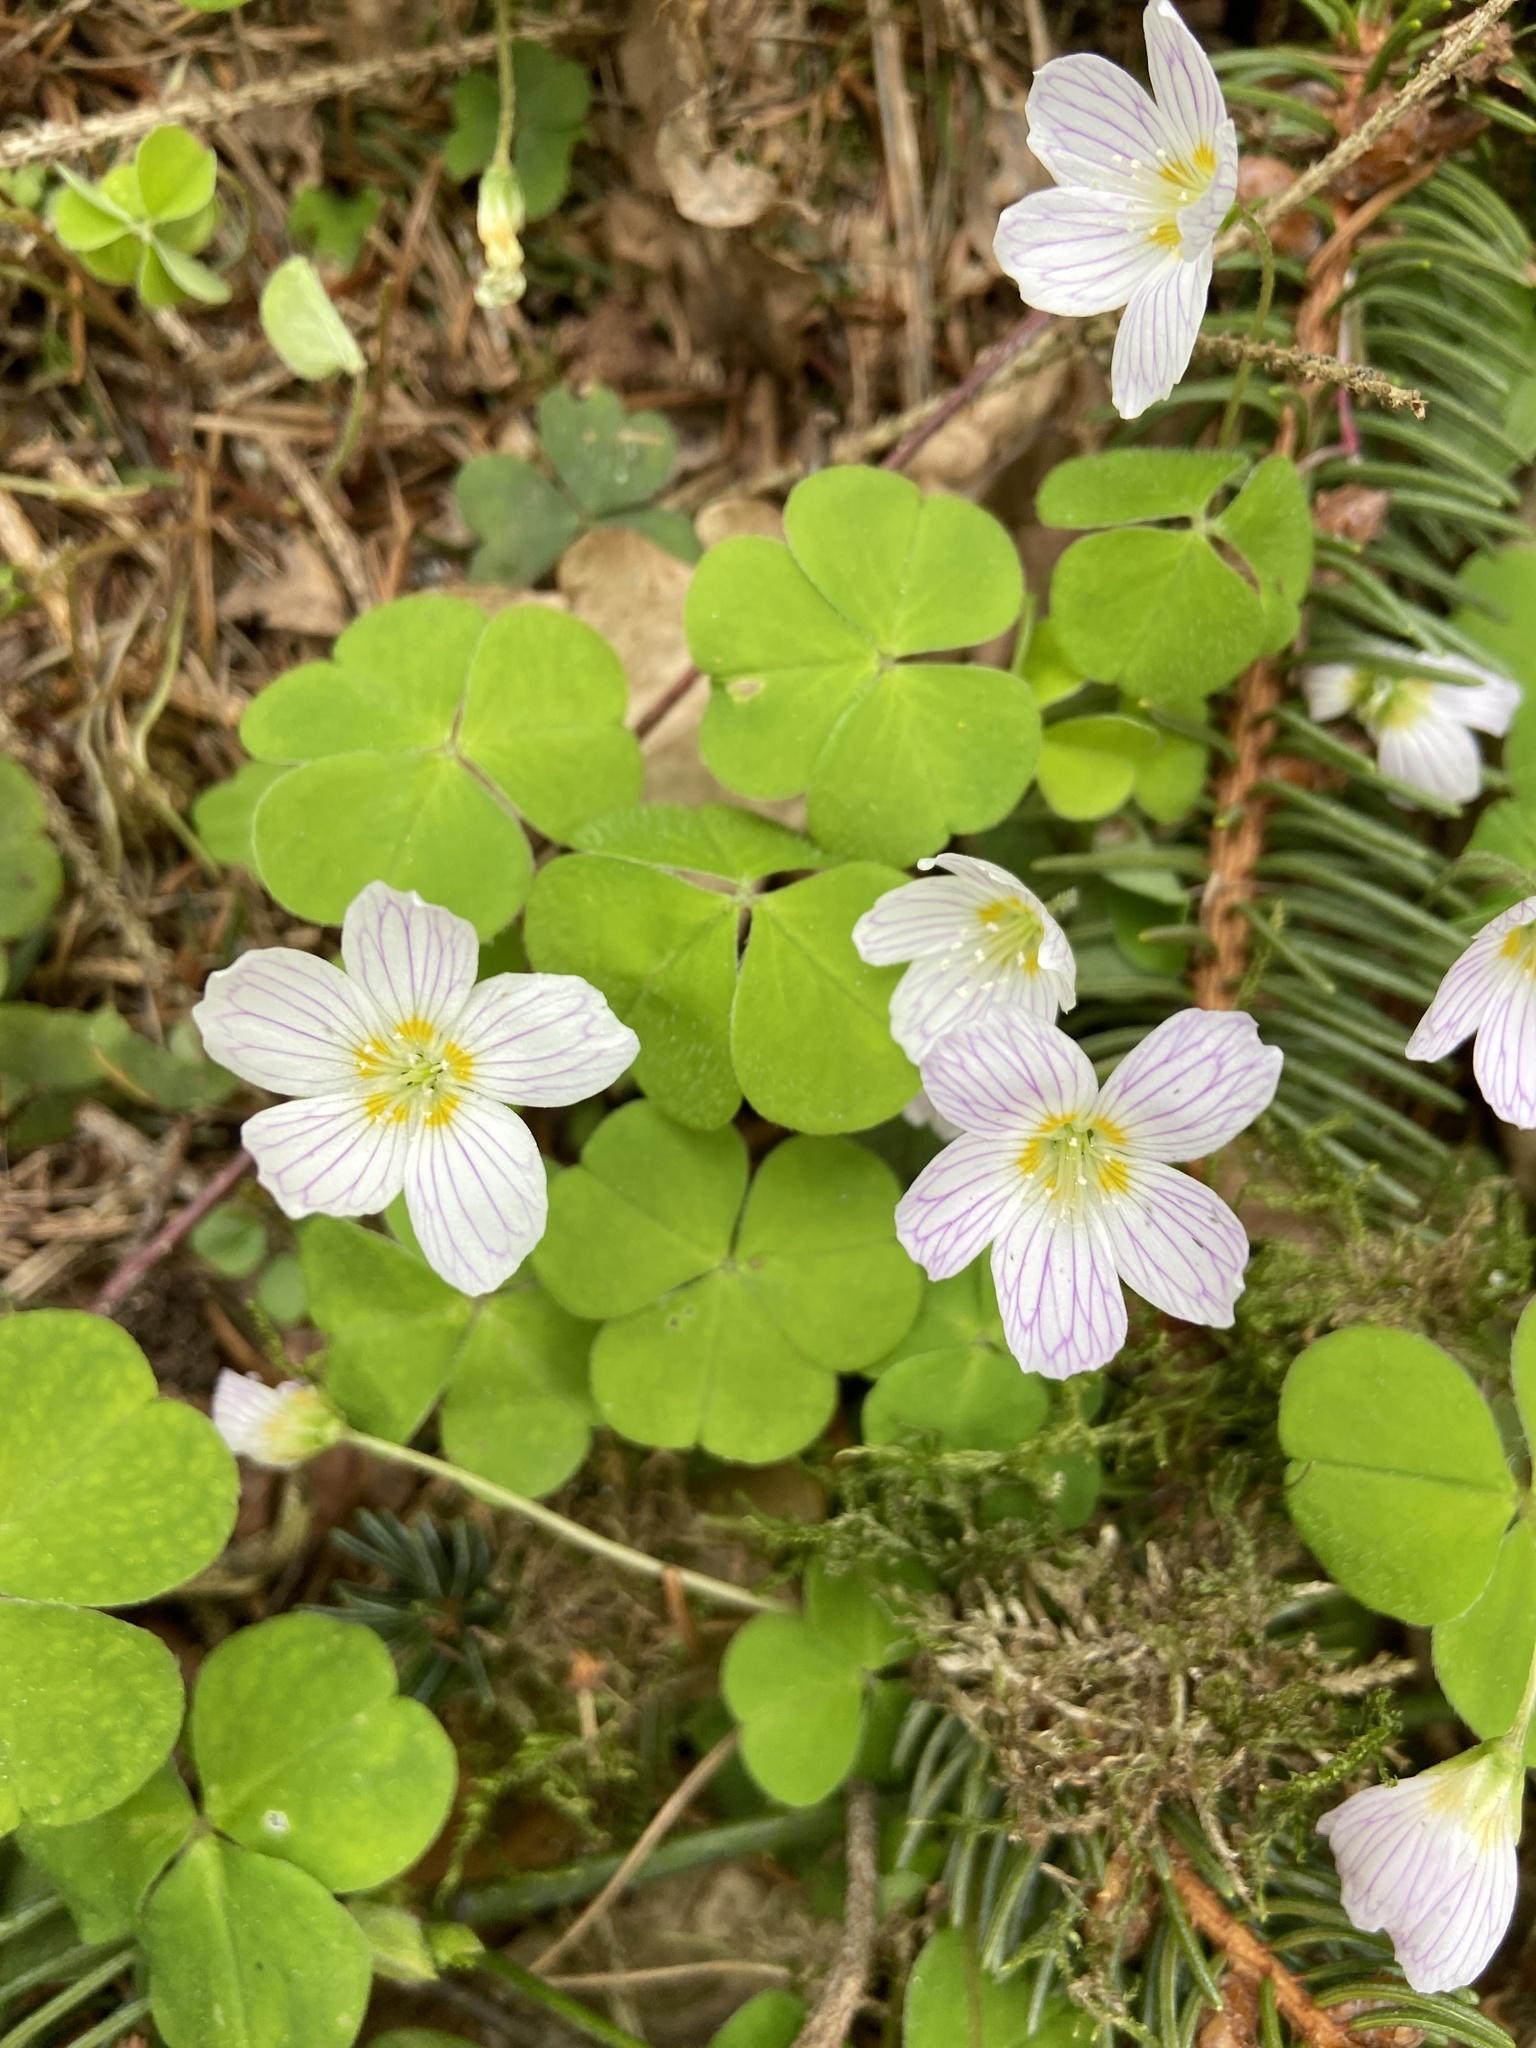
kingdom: Plantae
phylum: Tracheophyta
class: Magnoliopsida
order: Oxalidales
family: Oxalidaceae
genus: Oxalis
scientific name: Oxalis acetosella
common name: Wood-sorrel
